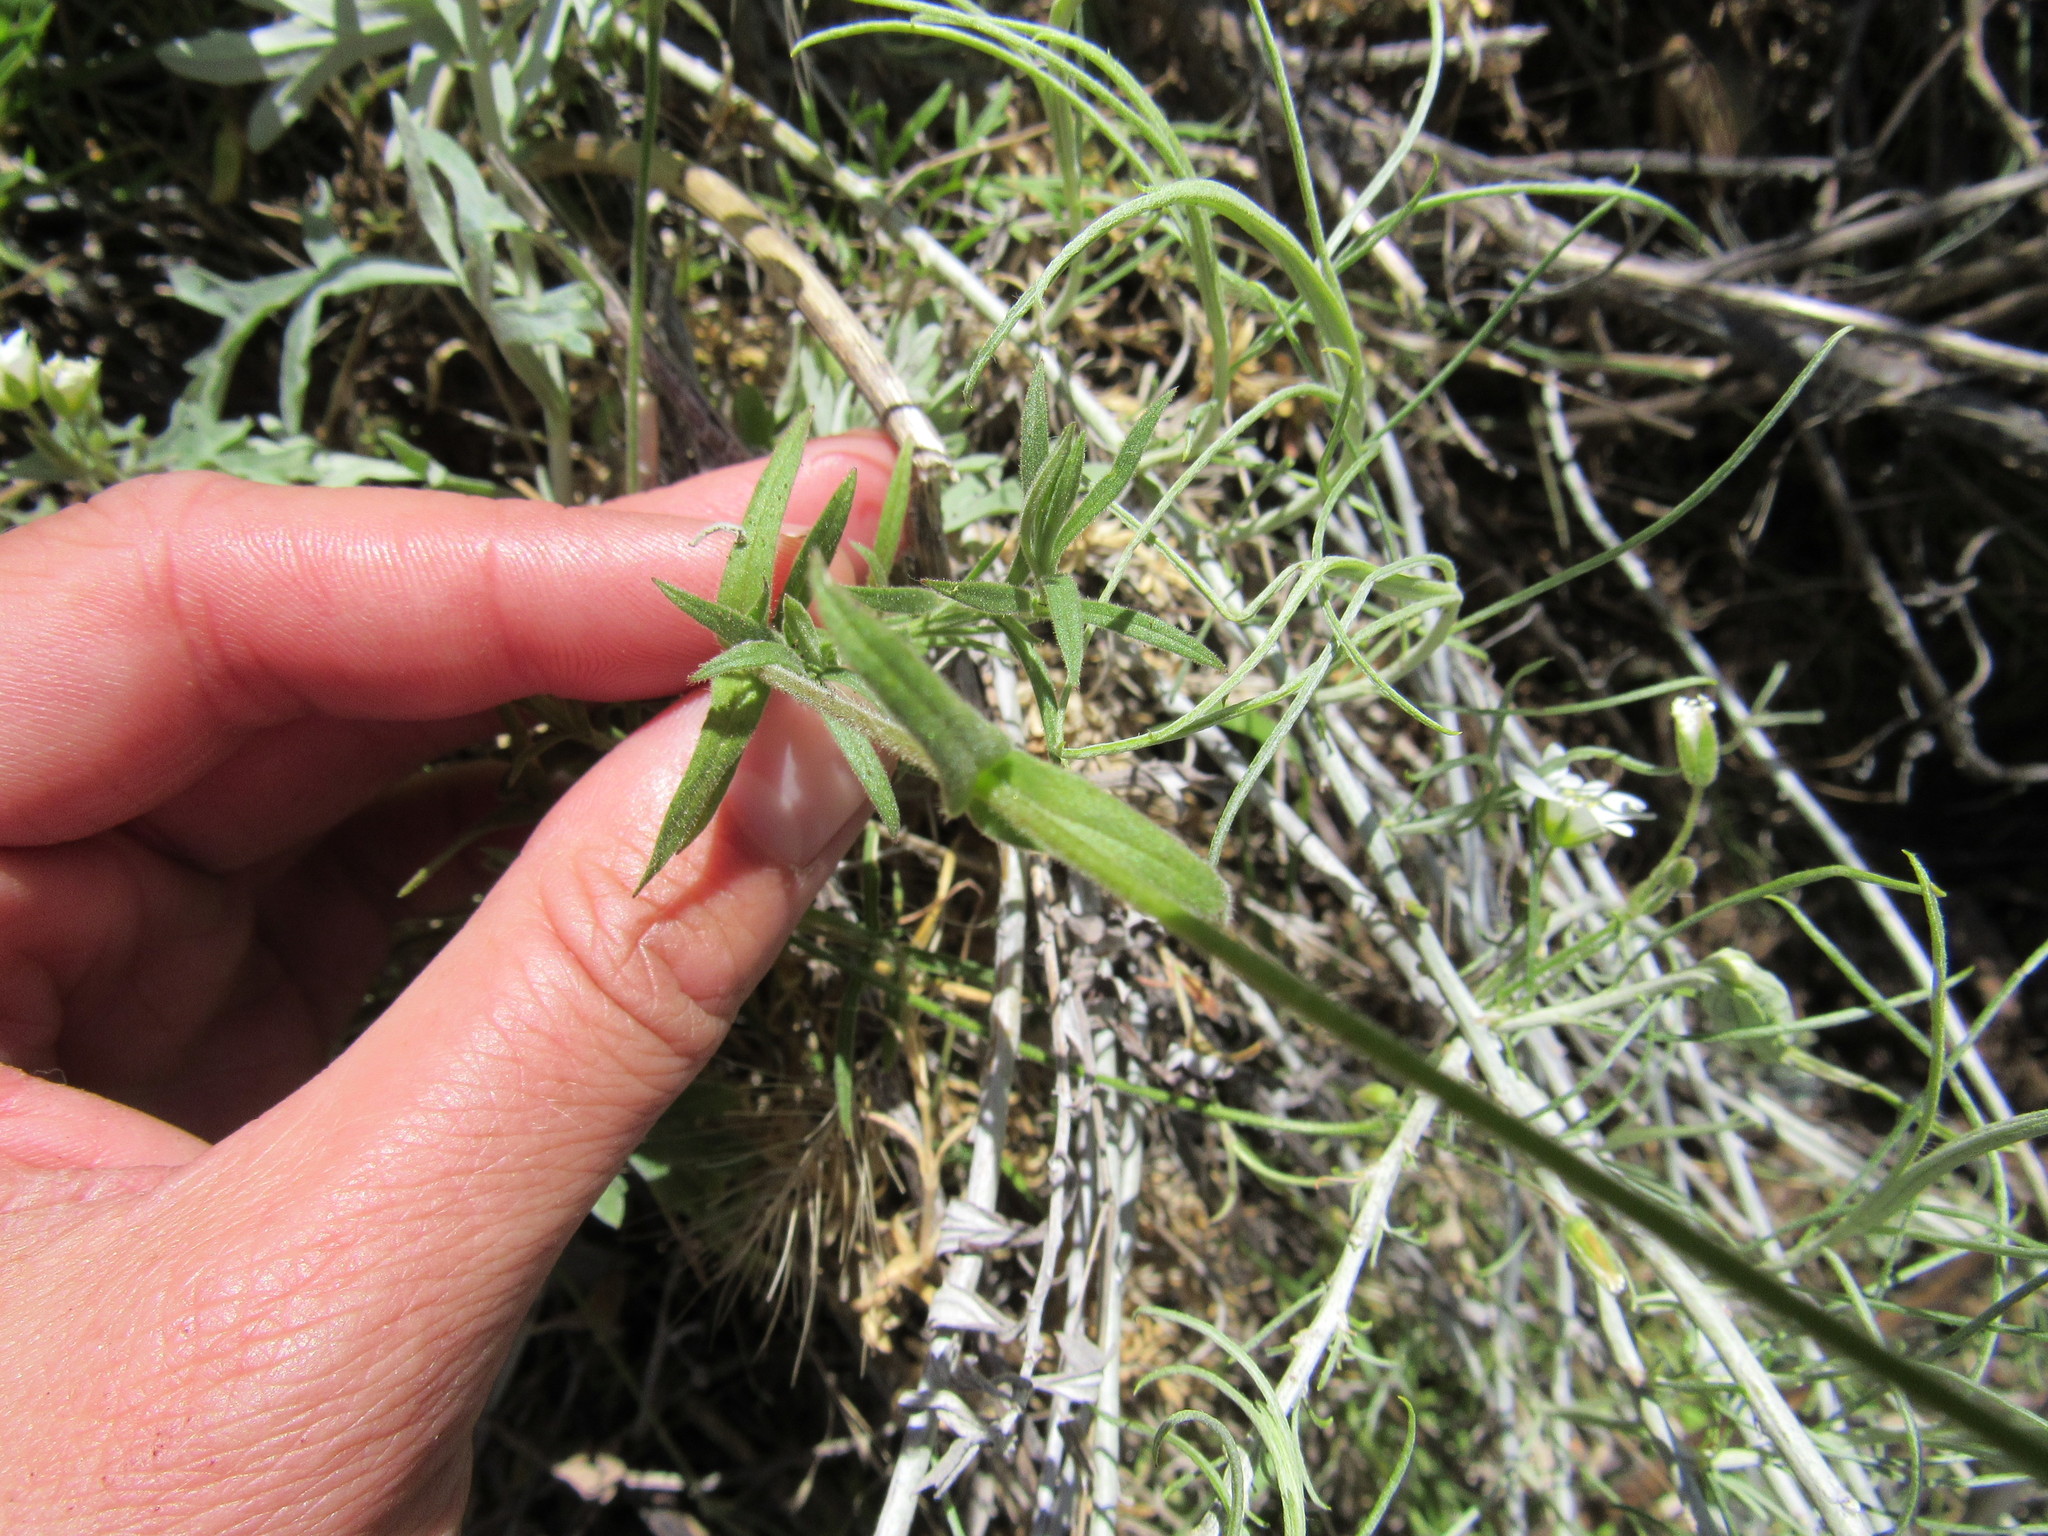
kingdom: Plantae
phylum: Tracheophyta
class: Magnoliopsida
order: Caryophyllales
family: Caryophyllaceae
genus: Cerastium
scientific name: Cerastium arvense
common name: Field mouse-ear
